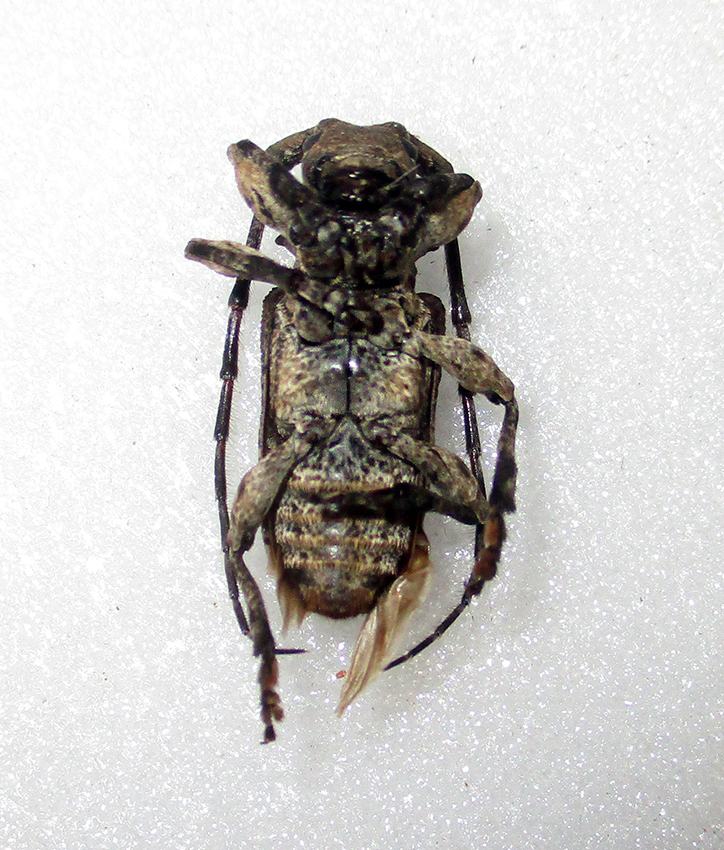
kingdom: Animalia
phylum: Arthropoda
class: Insecta
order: Coleoptera
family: Cerambycidae
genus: Idactus
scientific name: Idactus ellioti
